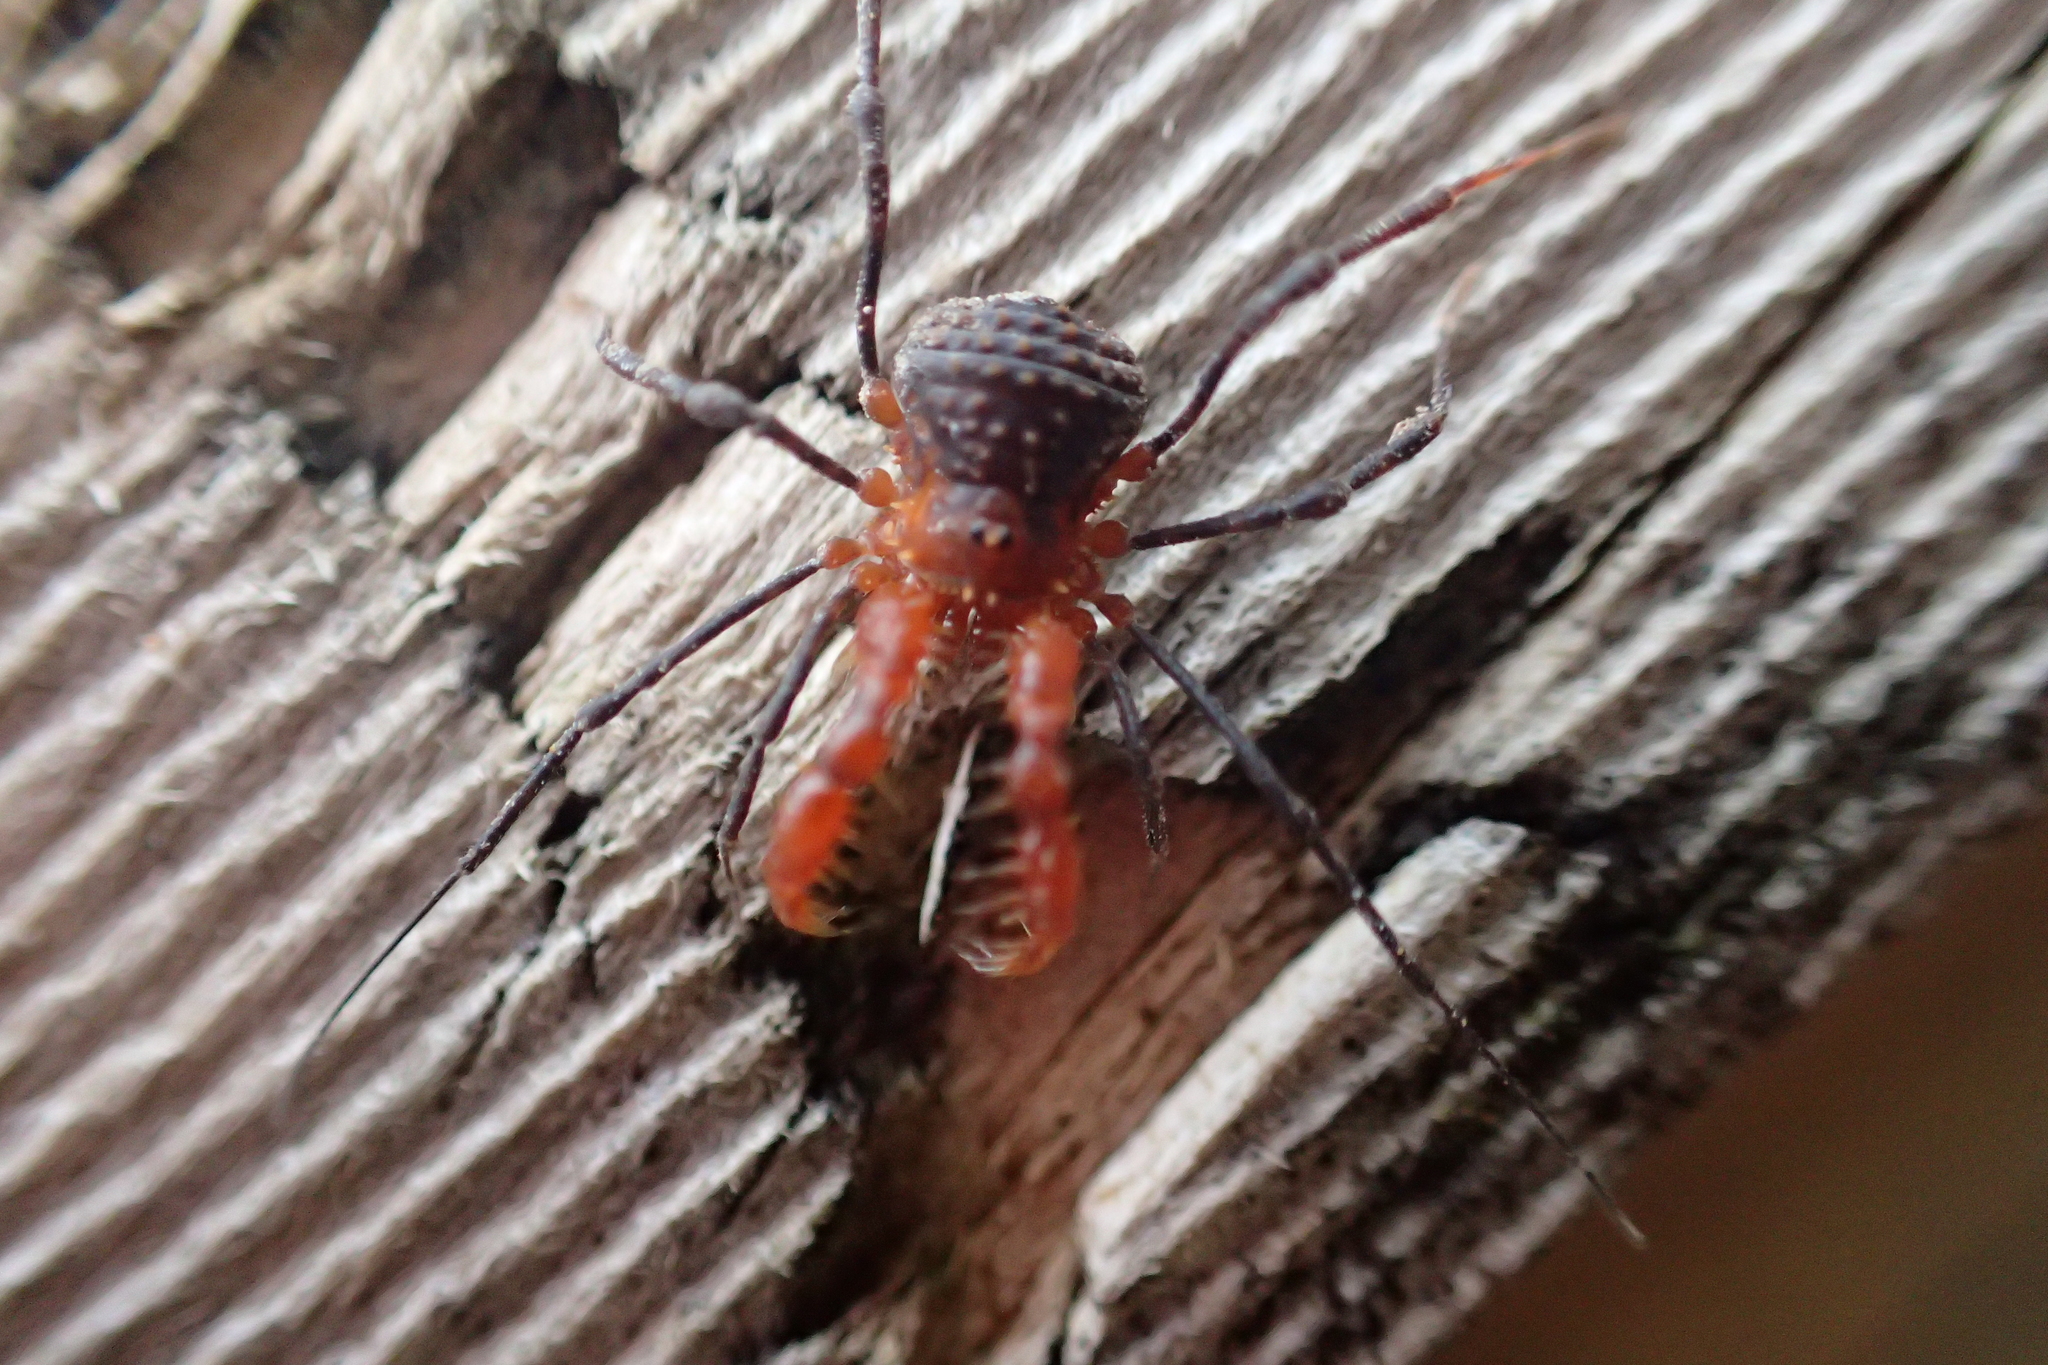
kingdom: Animalia
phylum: Arthropoda
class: Arachnida
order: Opiliones
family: Triaenonychidae
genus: Sorensenella
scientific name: Sorensenella prehensor
